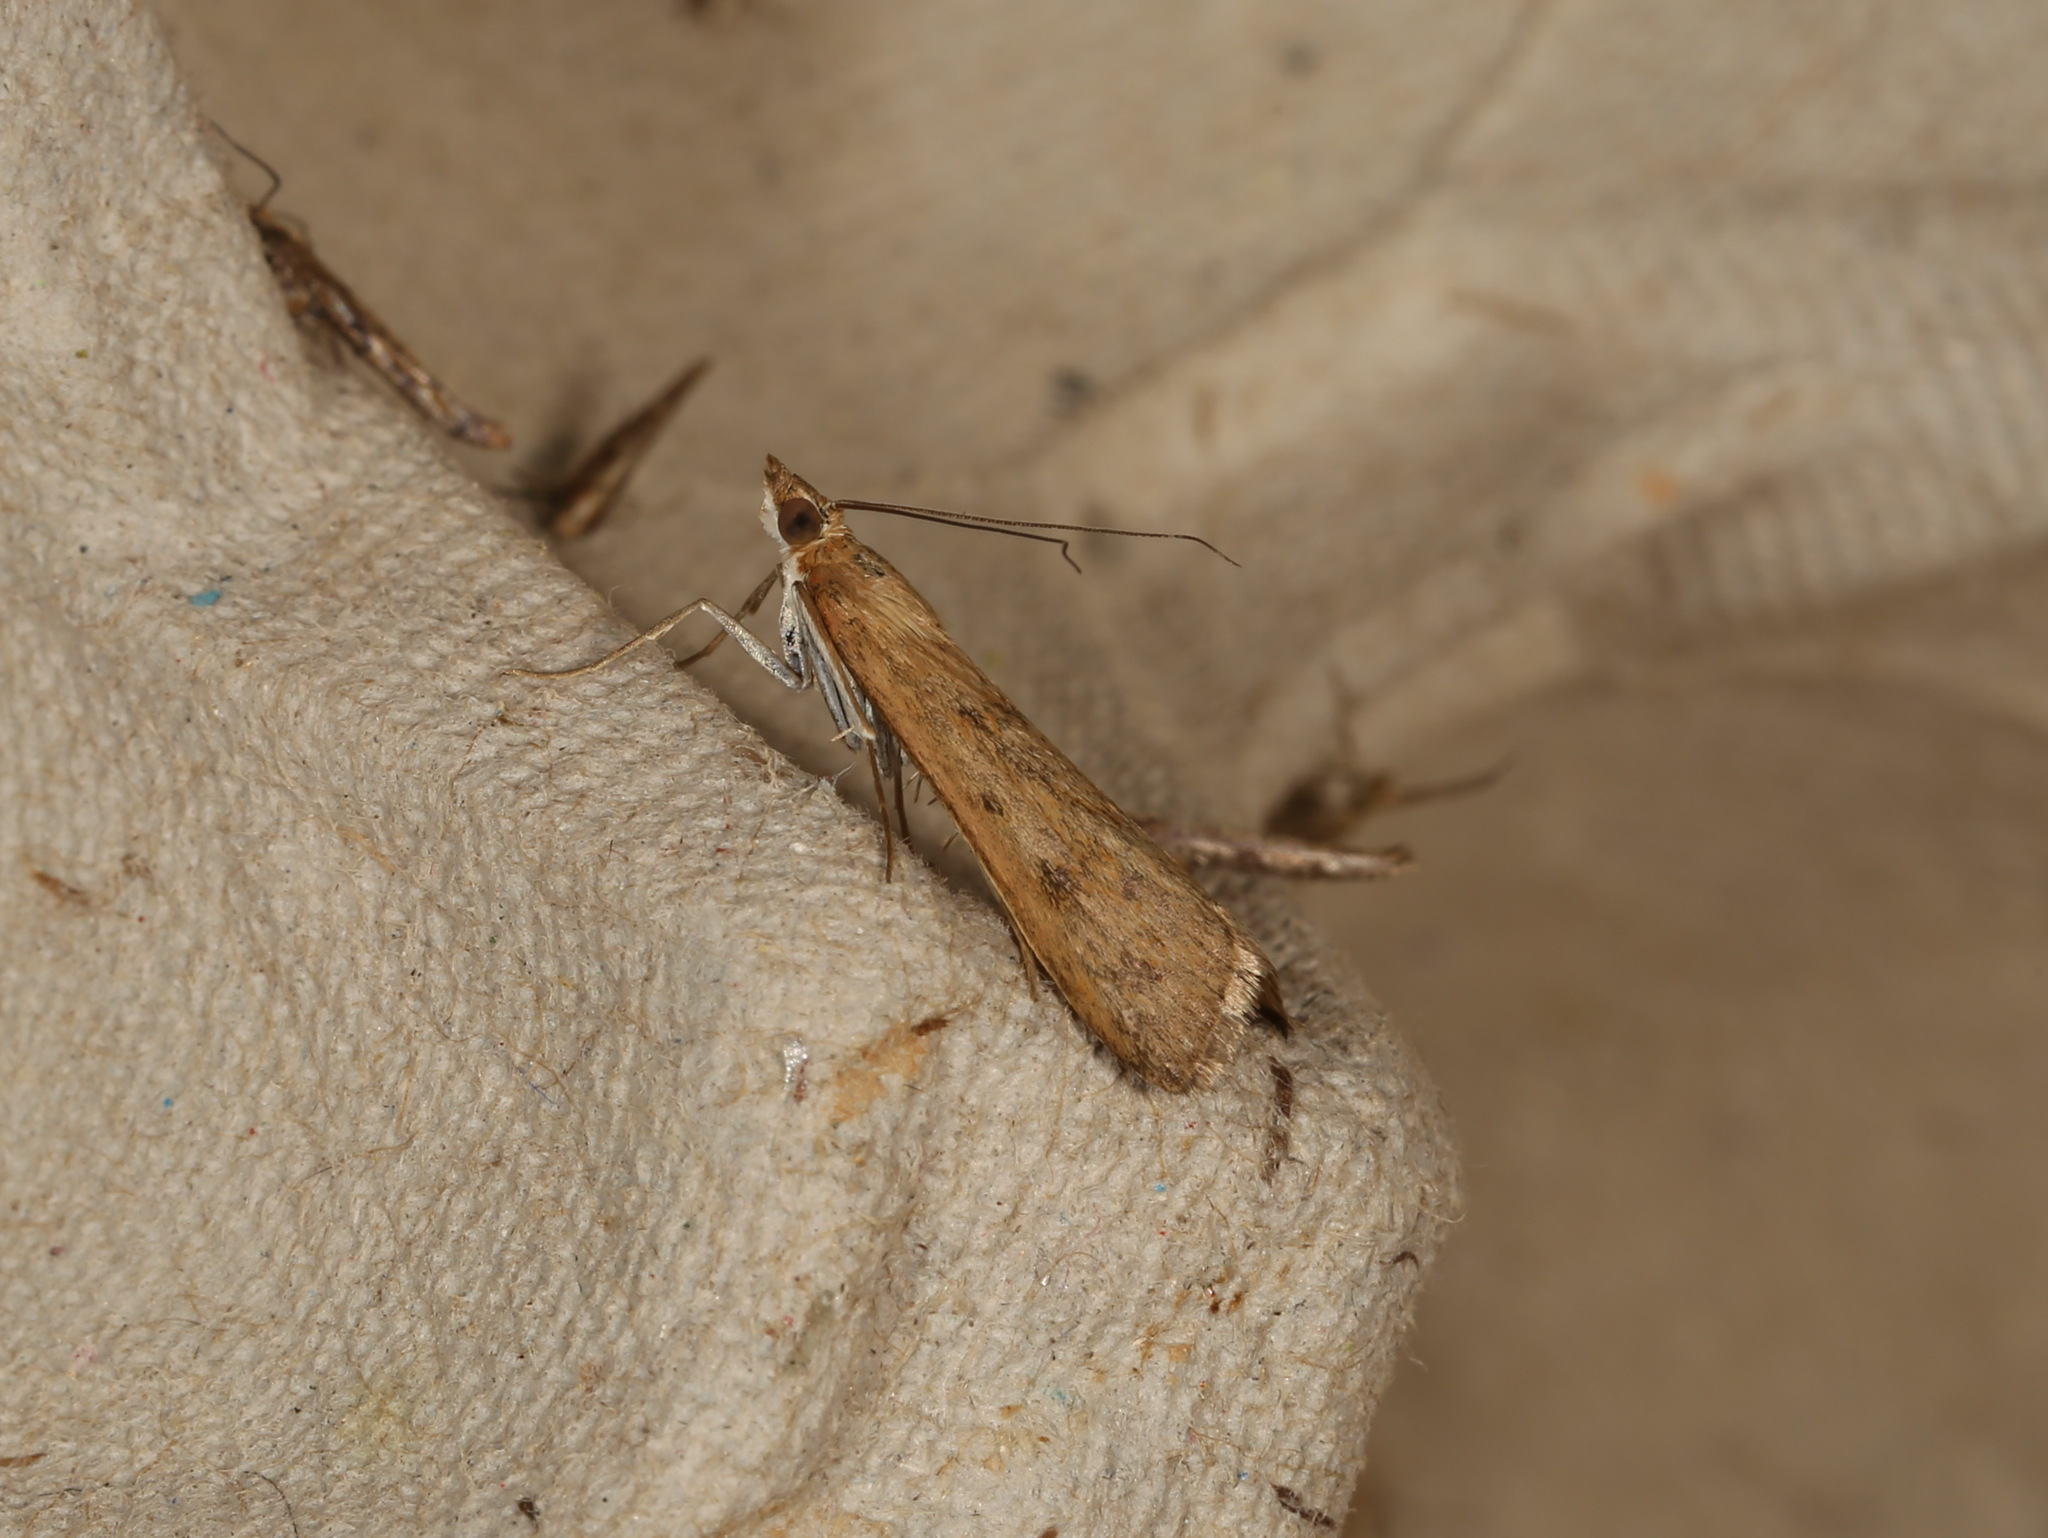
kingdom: Animalia
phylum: Arthropoda
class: Insecta
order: Lepidoptera
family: Crambidae
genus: Achyra
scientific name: Achyra affinitalis
